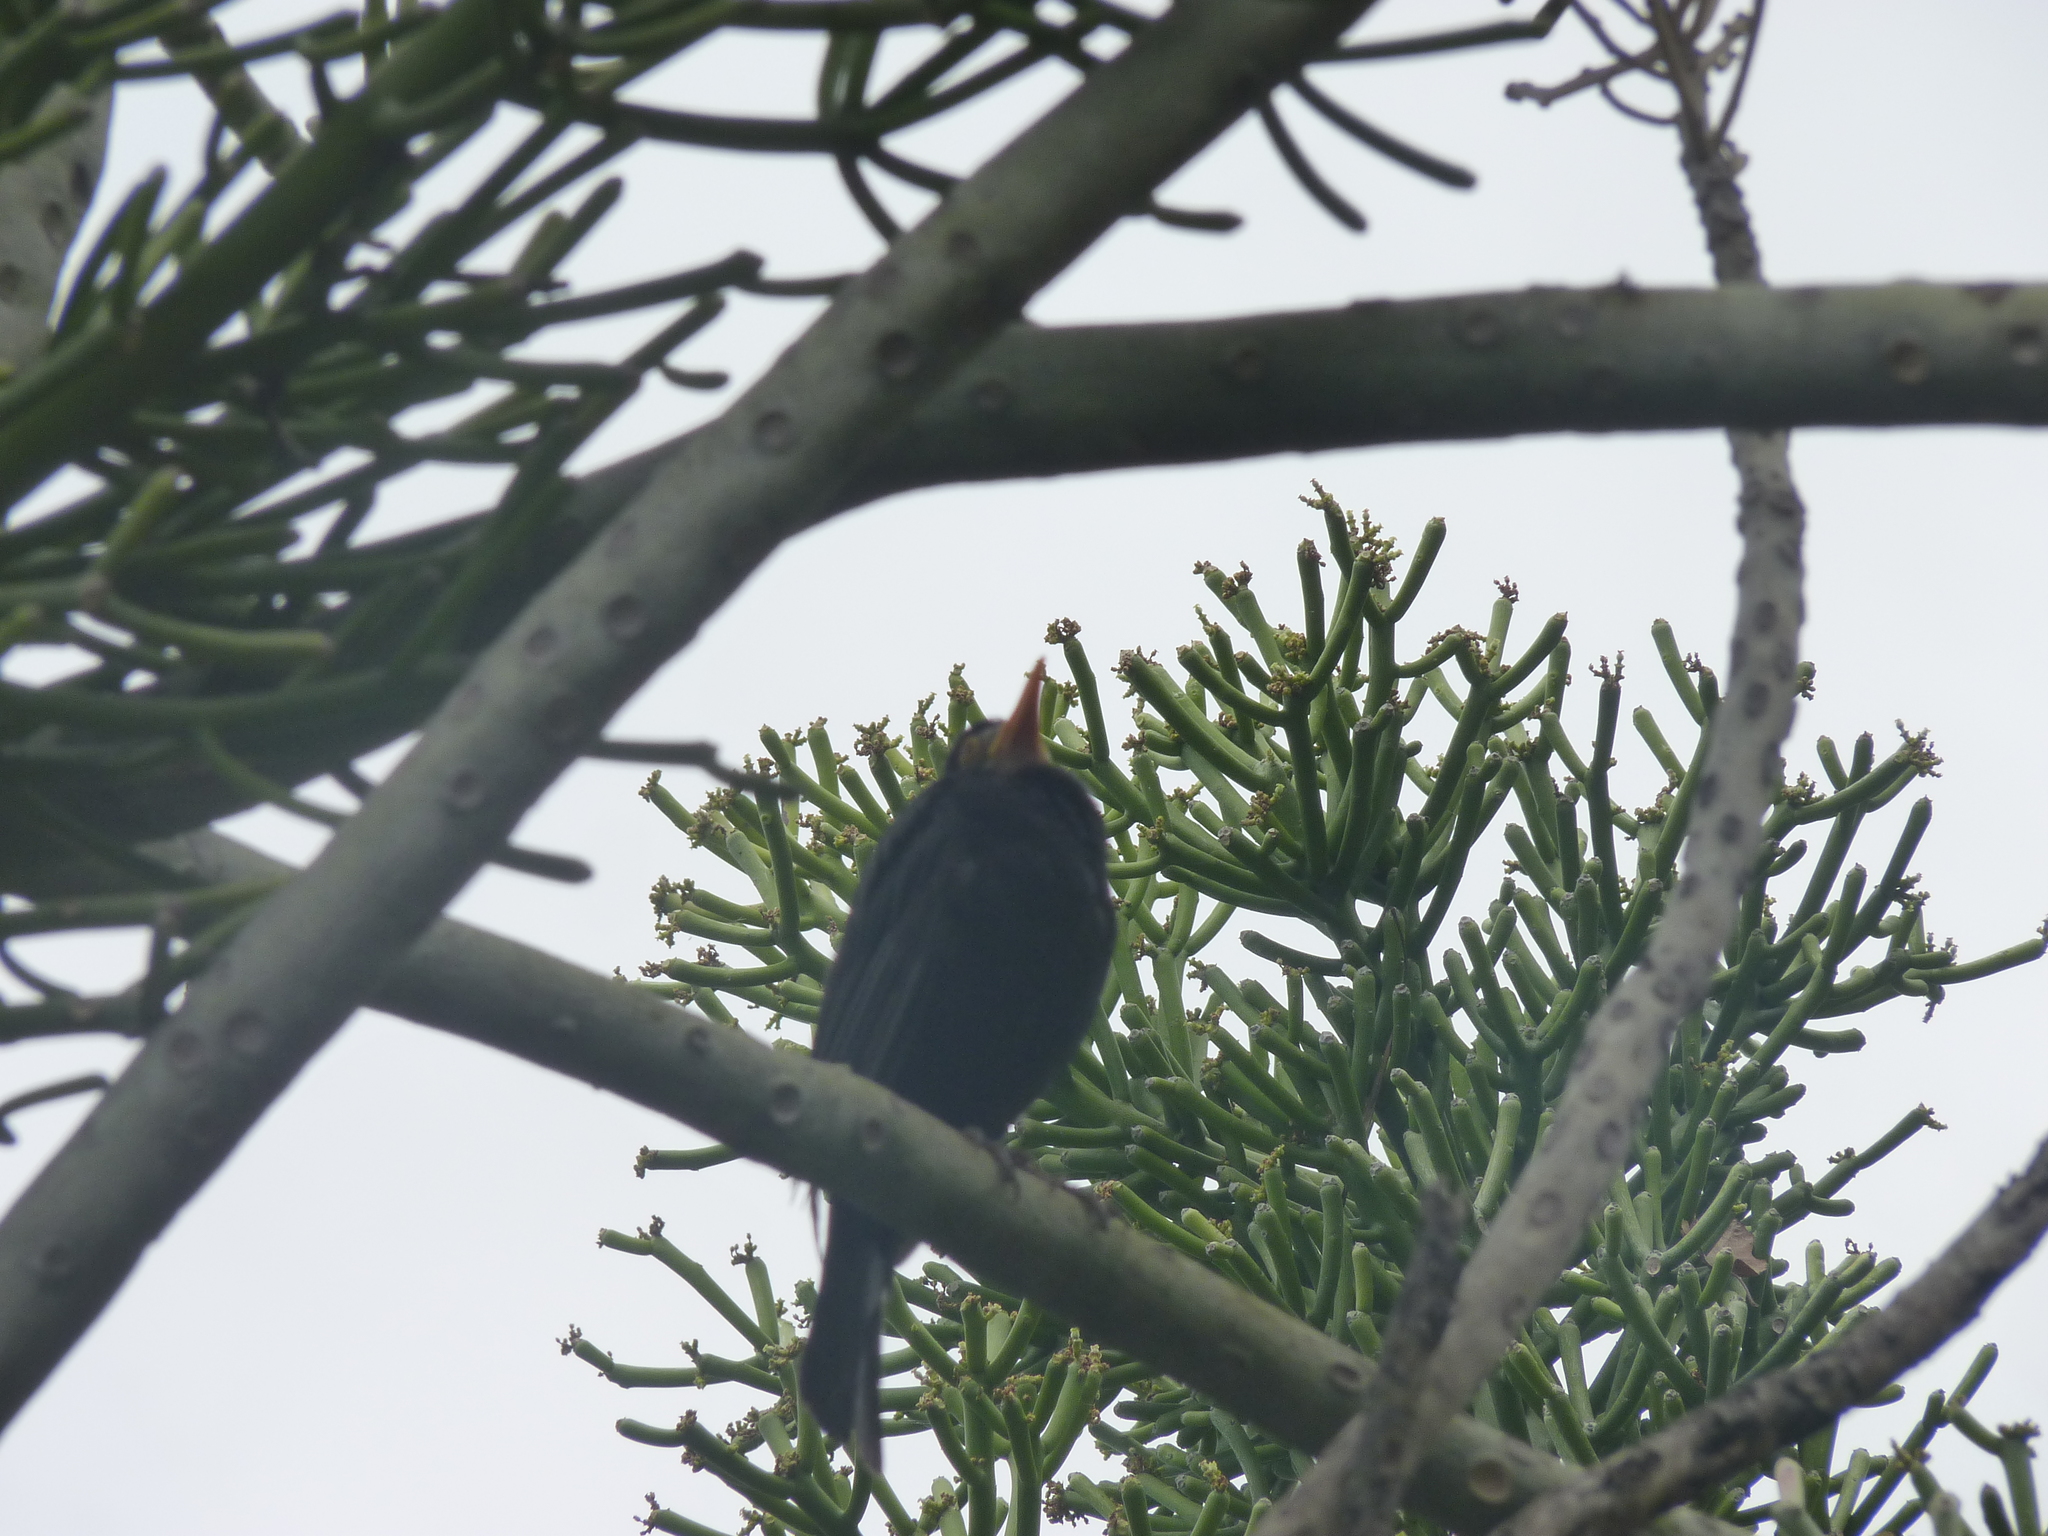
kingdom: Animalia
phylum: Chordata
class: Aves
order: Passeriformes
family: Turdidae
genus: Turdus
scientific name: Turdus merula
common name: Common blackbird
